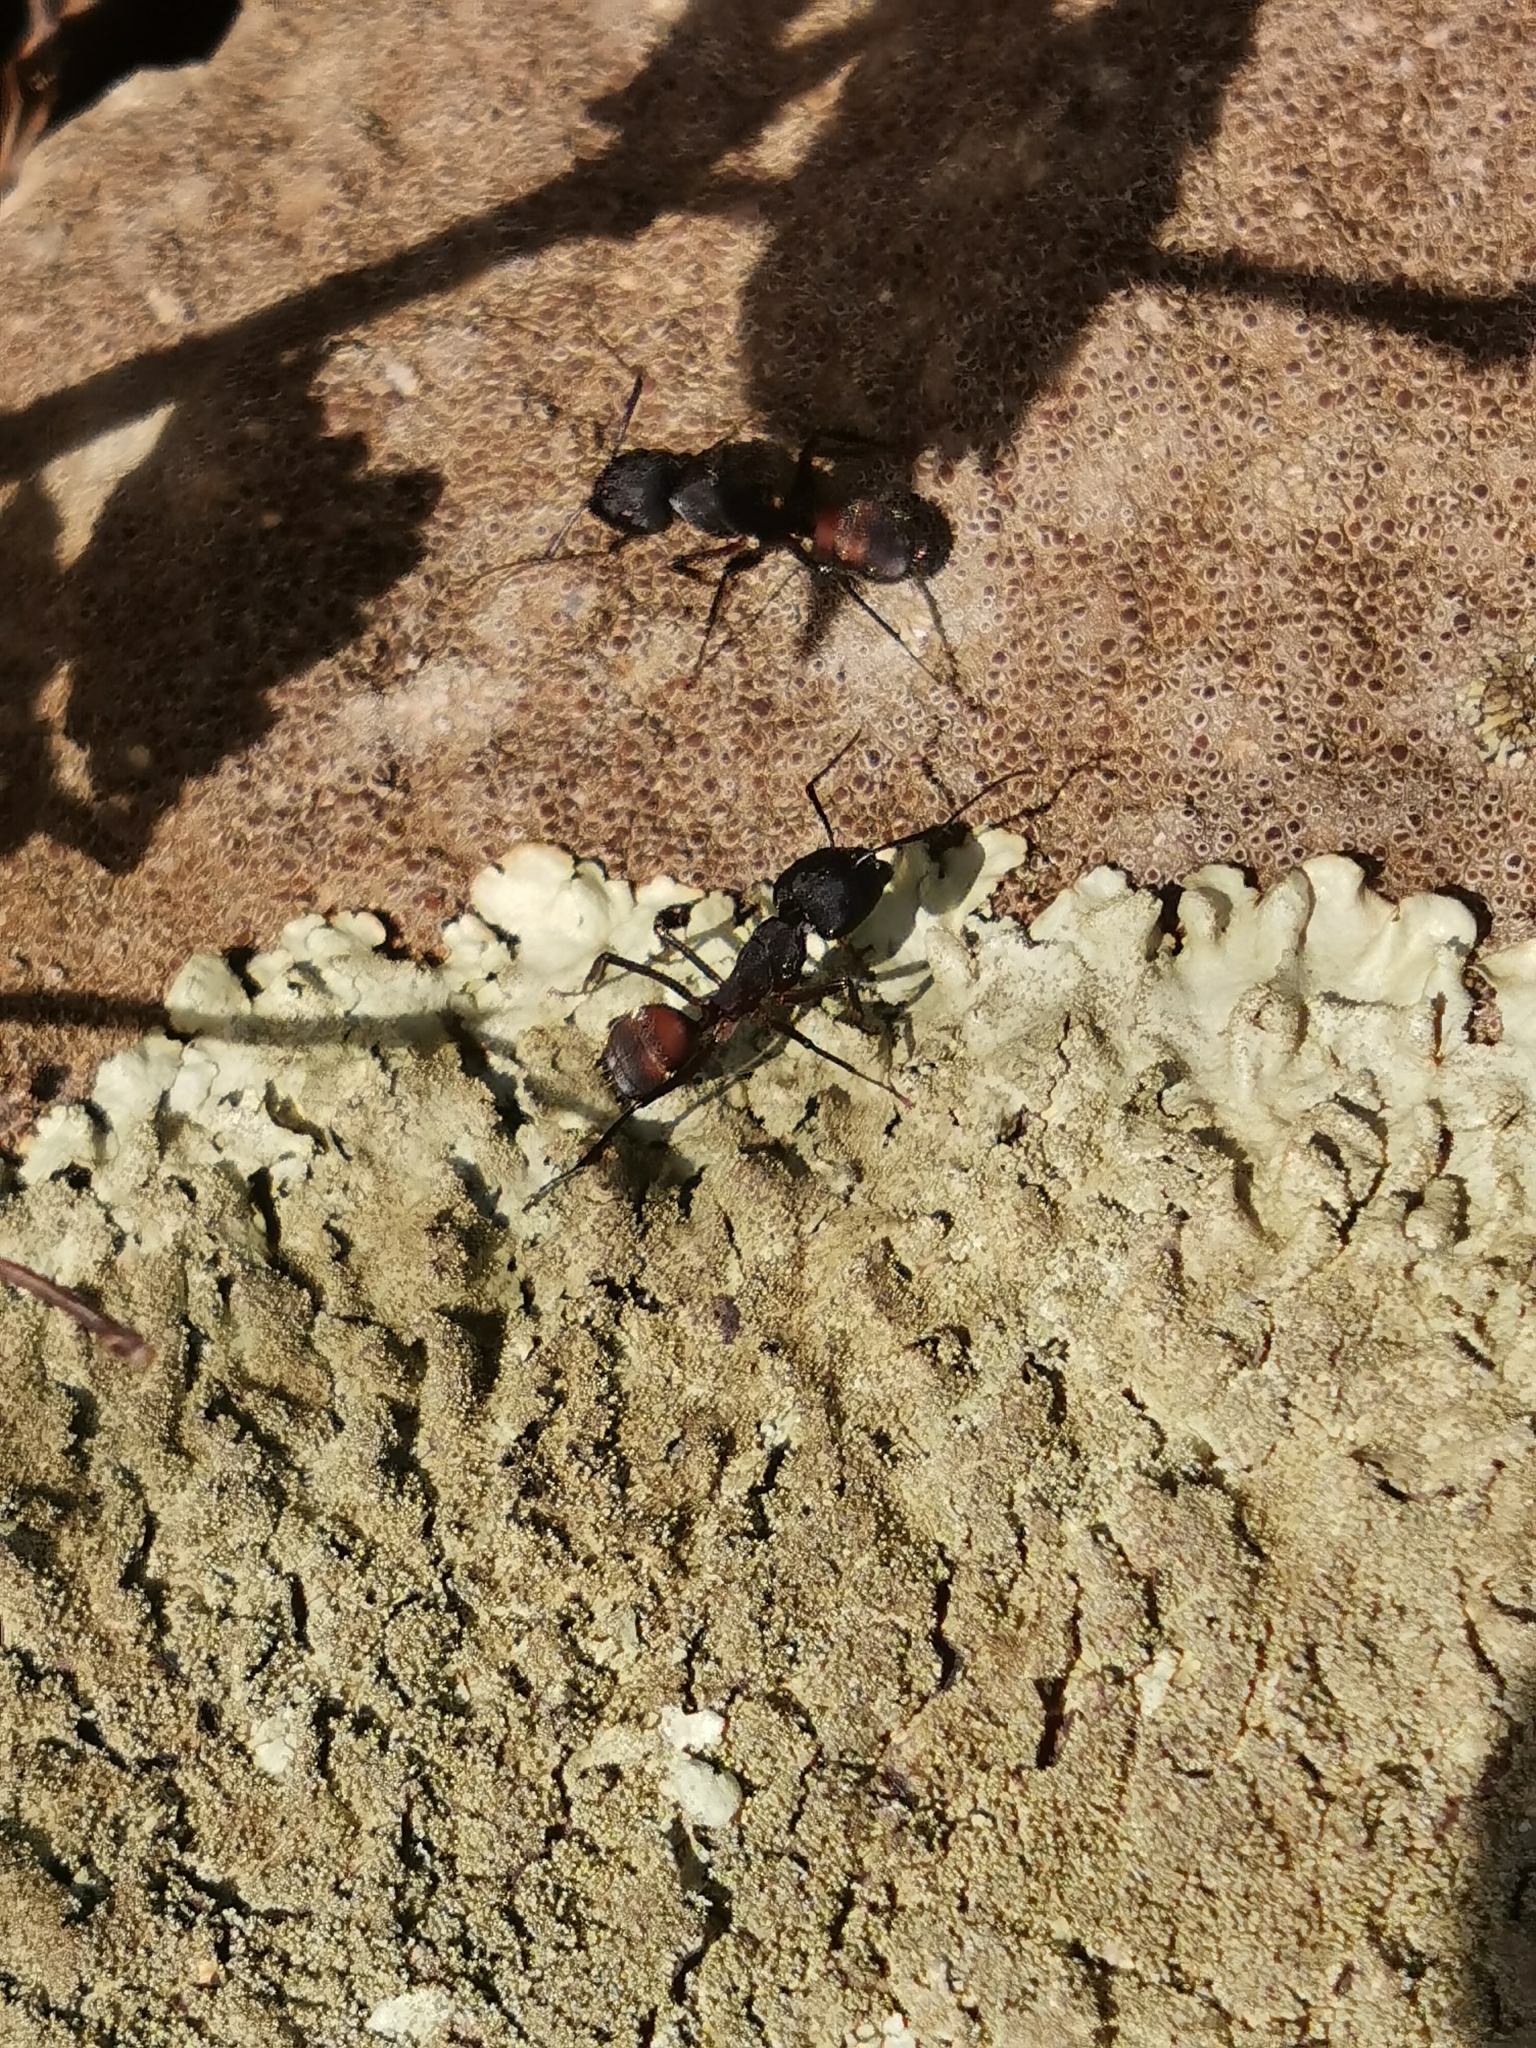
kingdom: Animalia
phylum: Arthropoda
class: Insecta
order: Hymenoptera
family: Formicidae
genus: Camponotus
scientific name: Camponotus cruentatus
